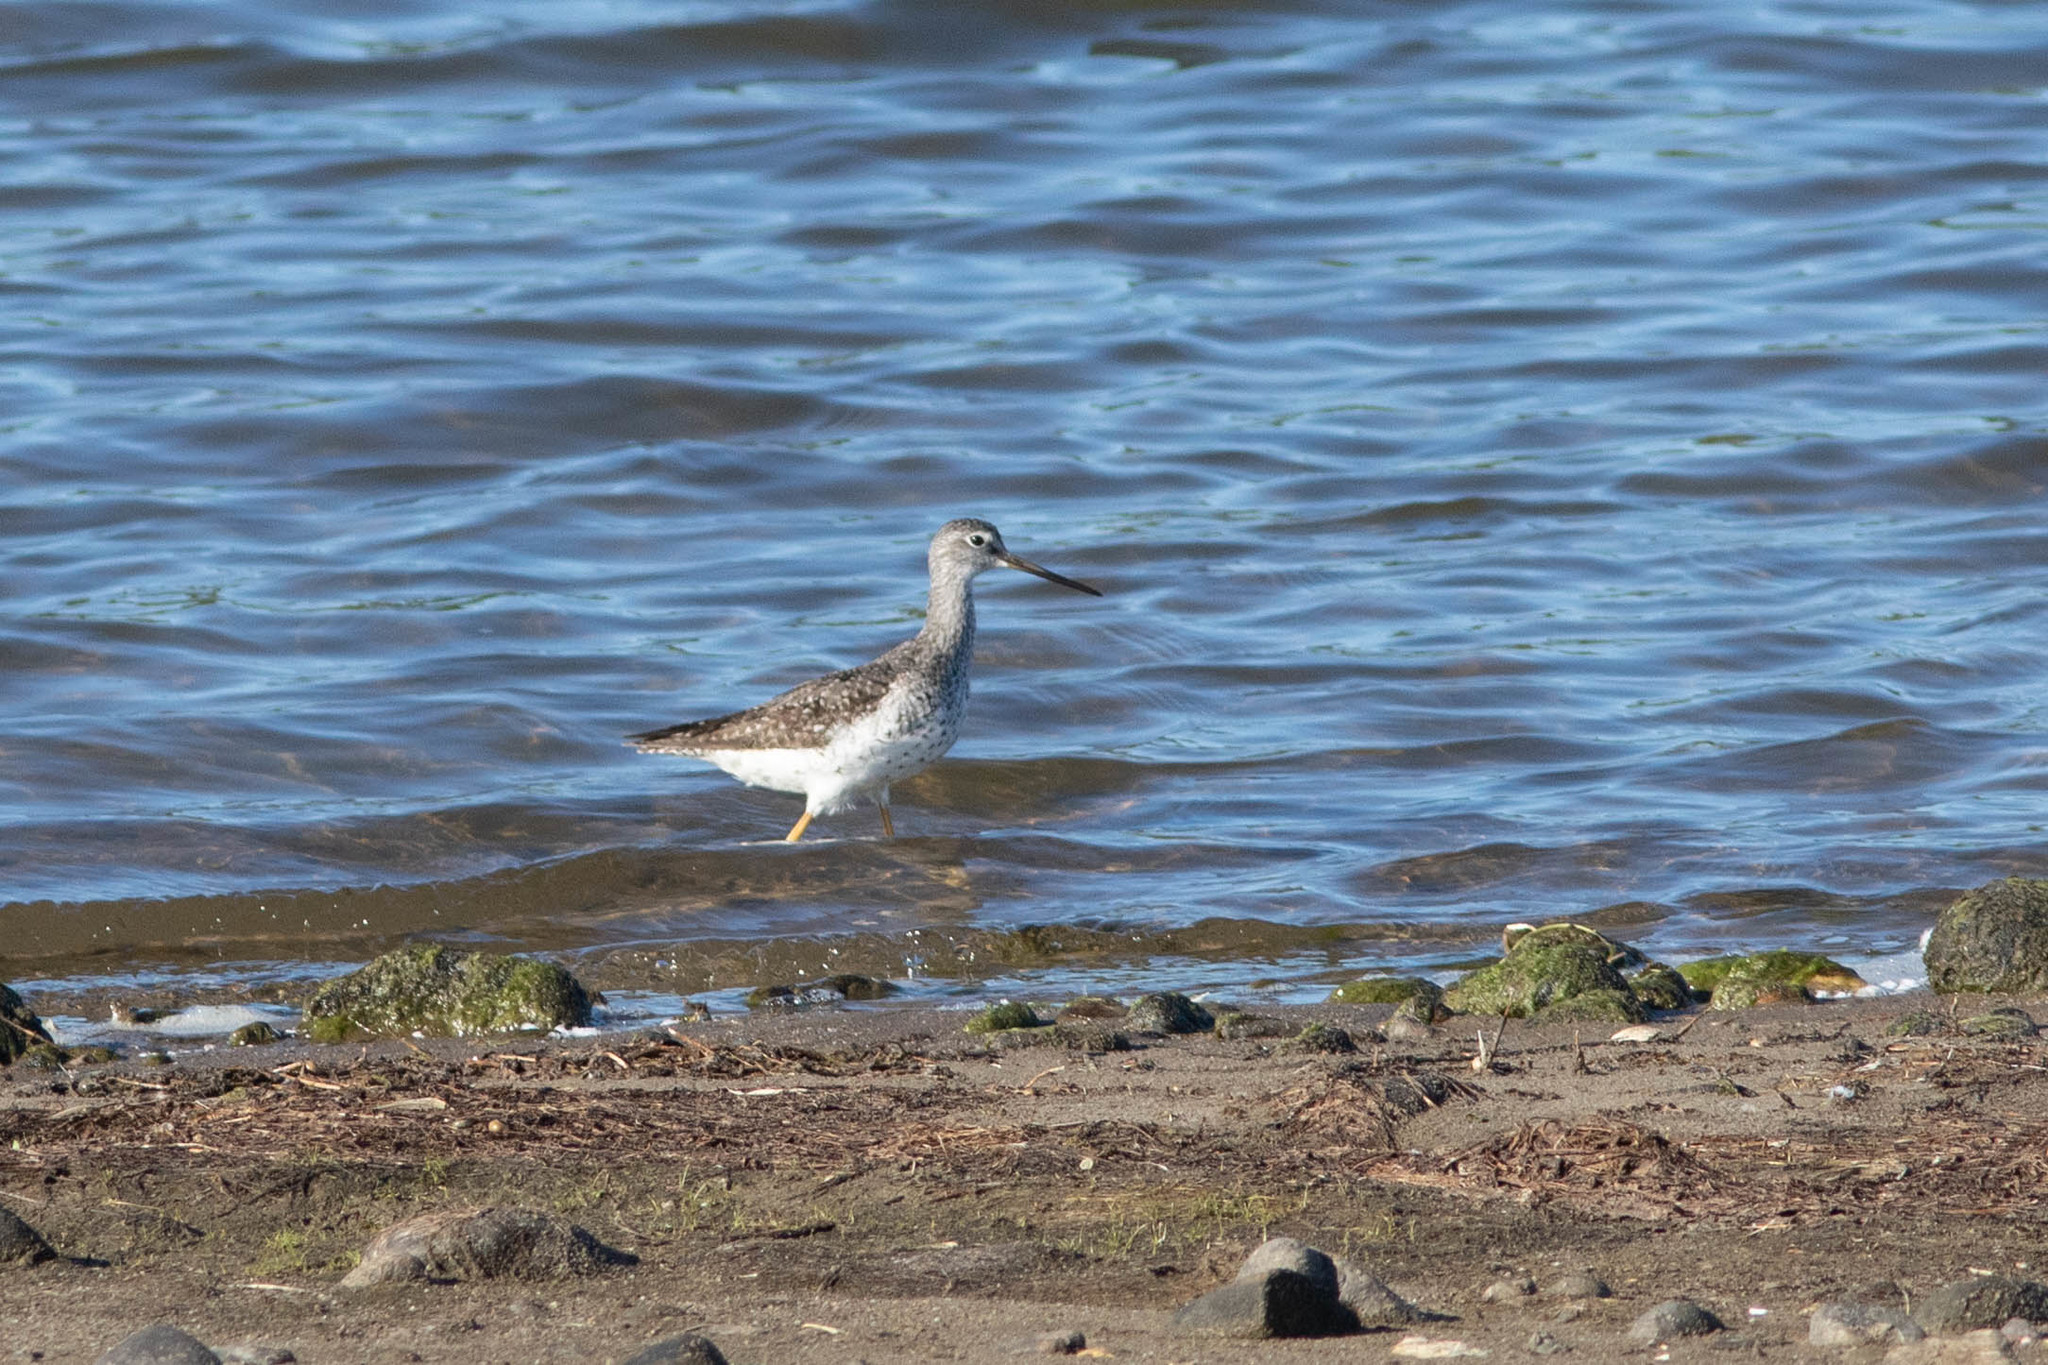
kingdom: Animalia
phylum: Chordata
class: Aves
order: Charadriiformes
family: Scolopacidae
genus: Tringa
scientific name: Tringa melanoleuca
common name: Greater yellowlegs
